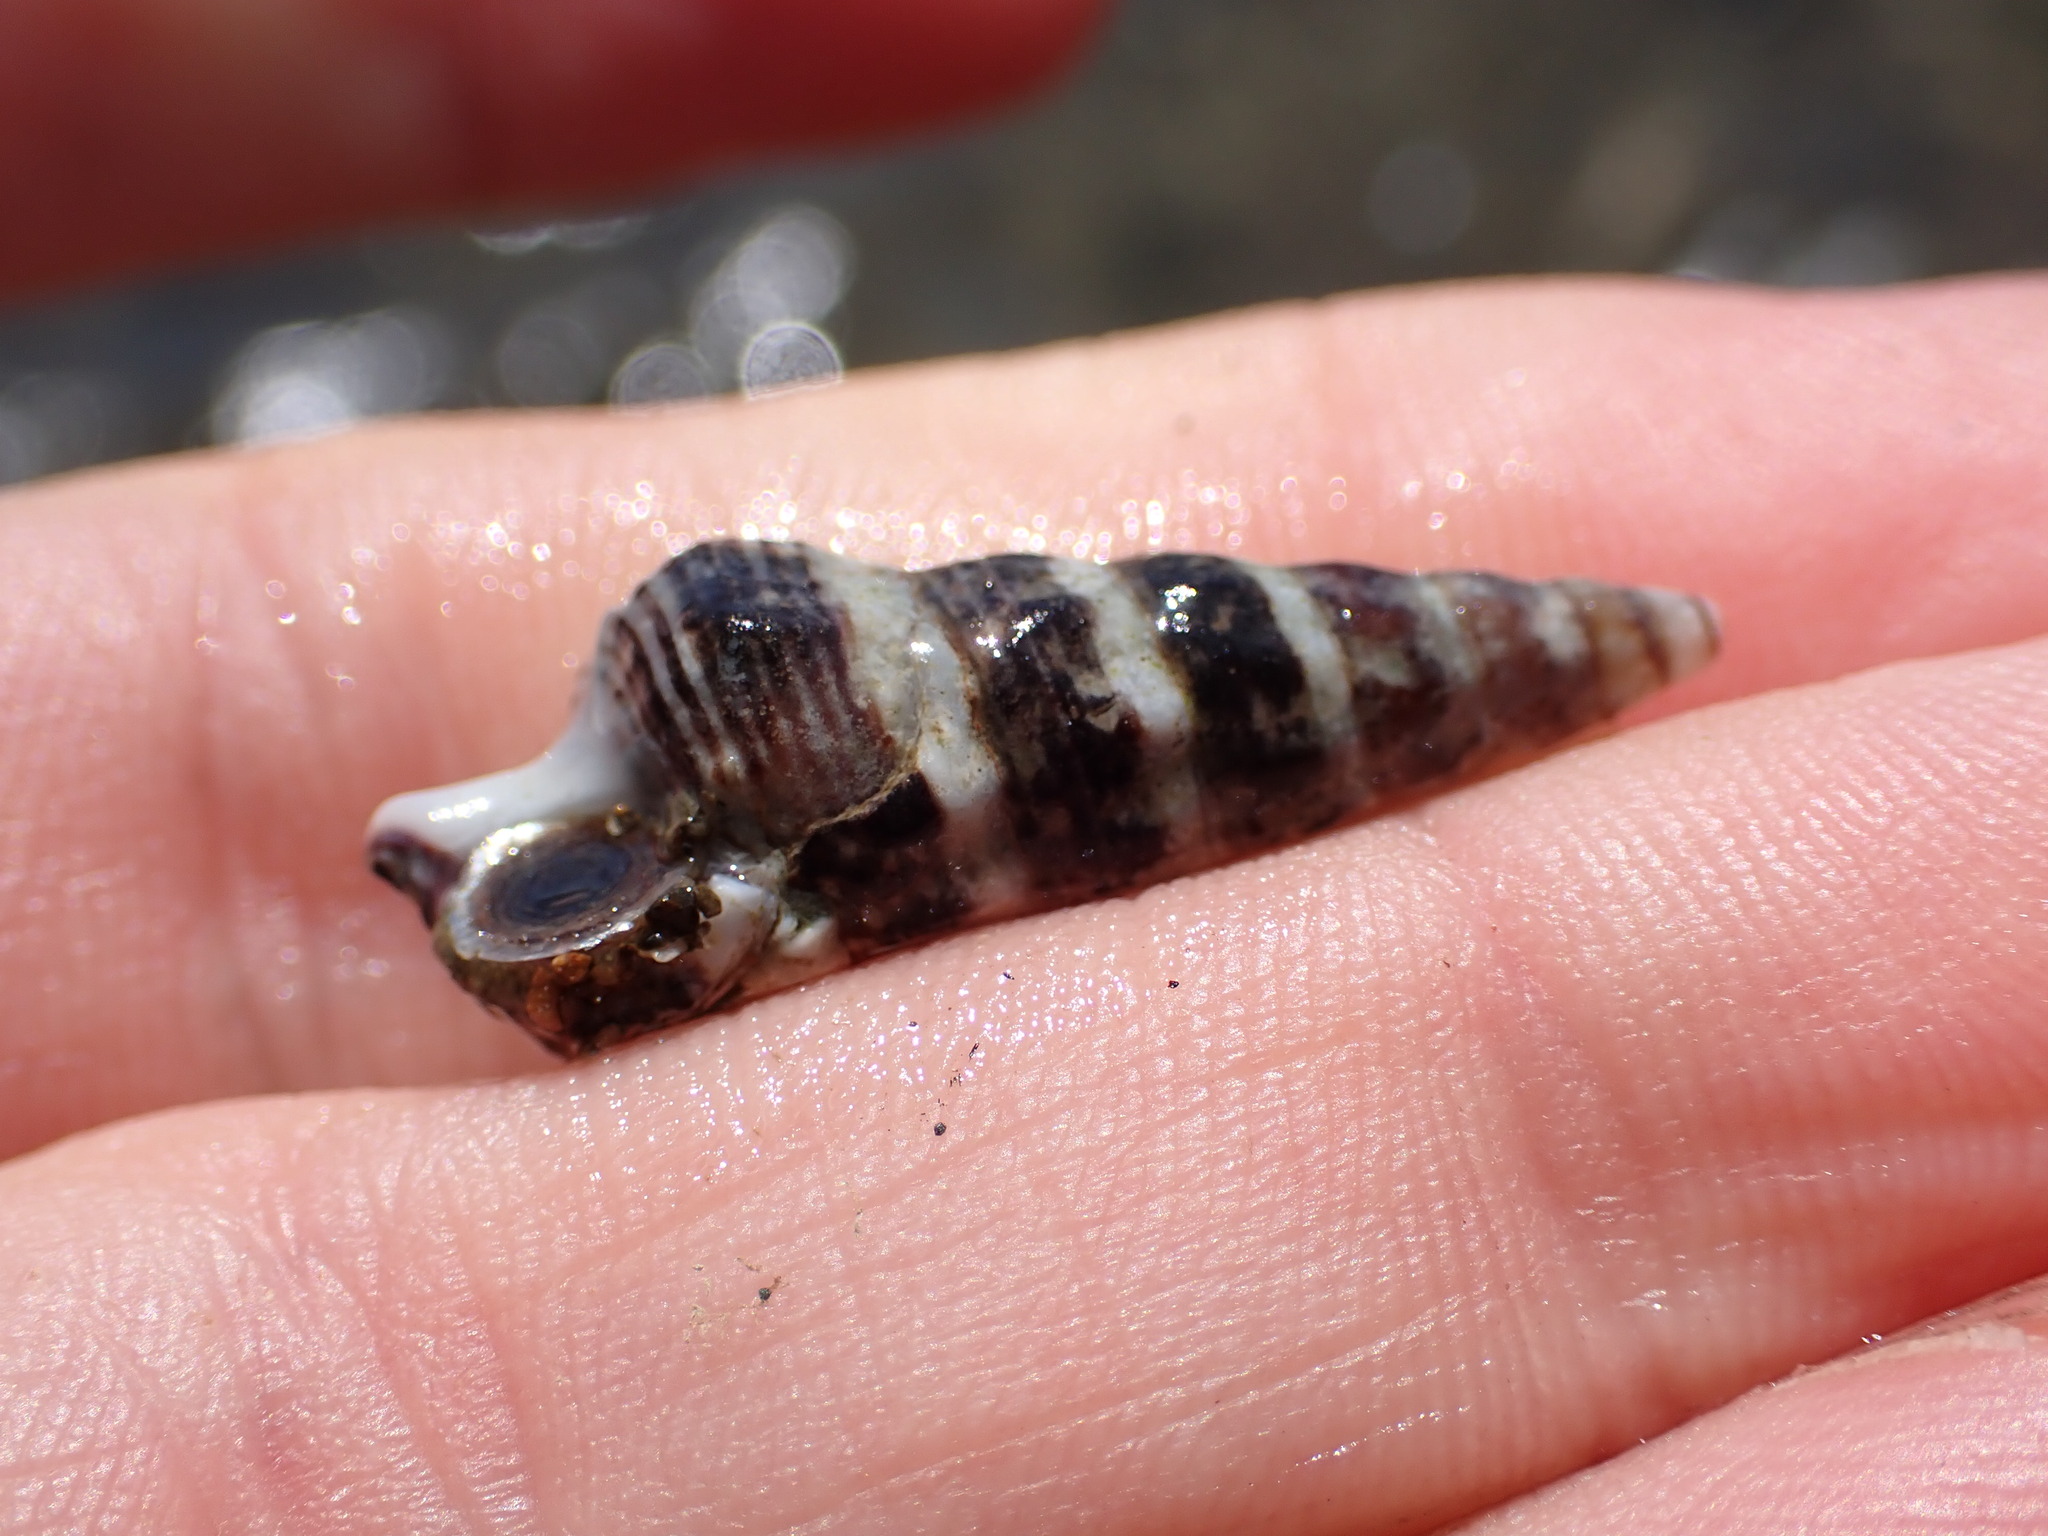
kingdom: Animalia
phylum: Mollusca
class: Gastropoda
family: Batillariidae
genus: Batillaria
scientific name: Batillaria attramentaria
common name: Japanese false cerith
